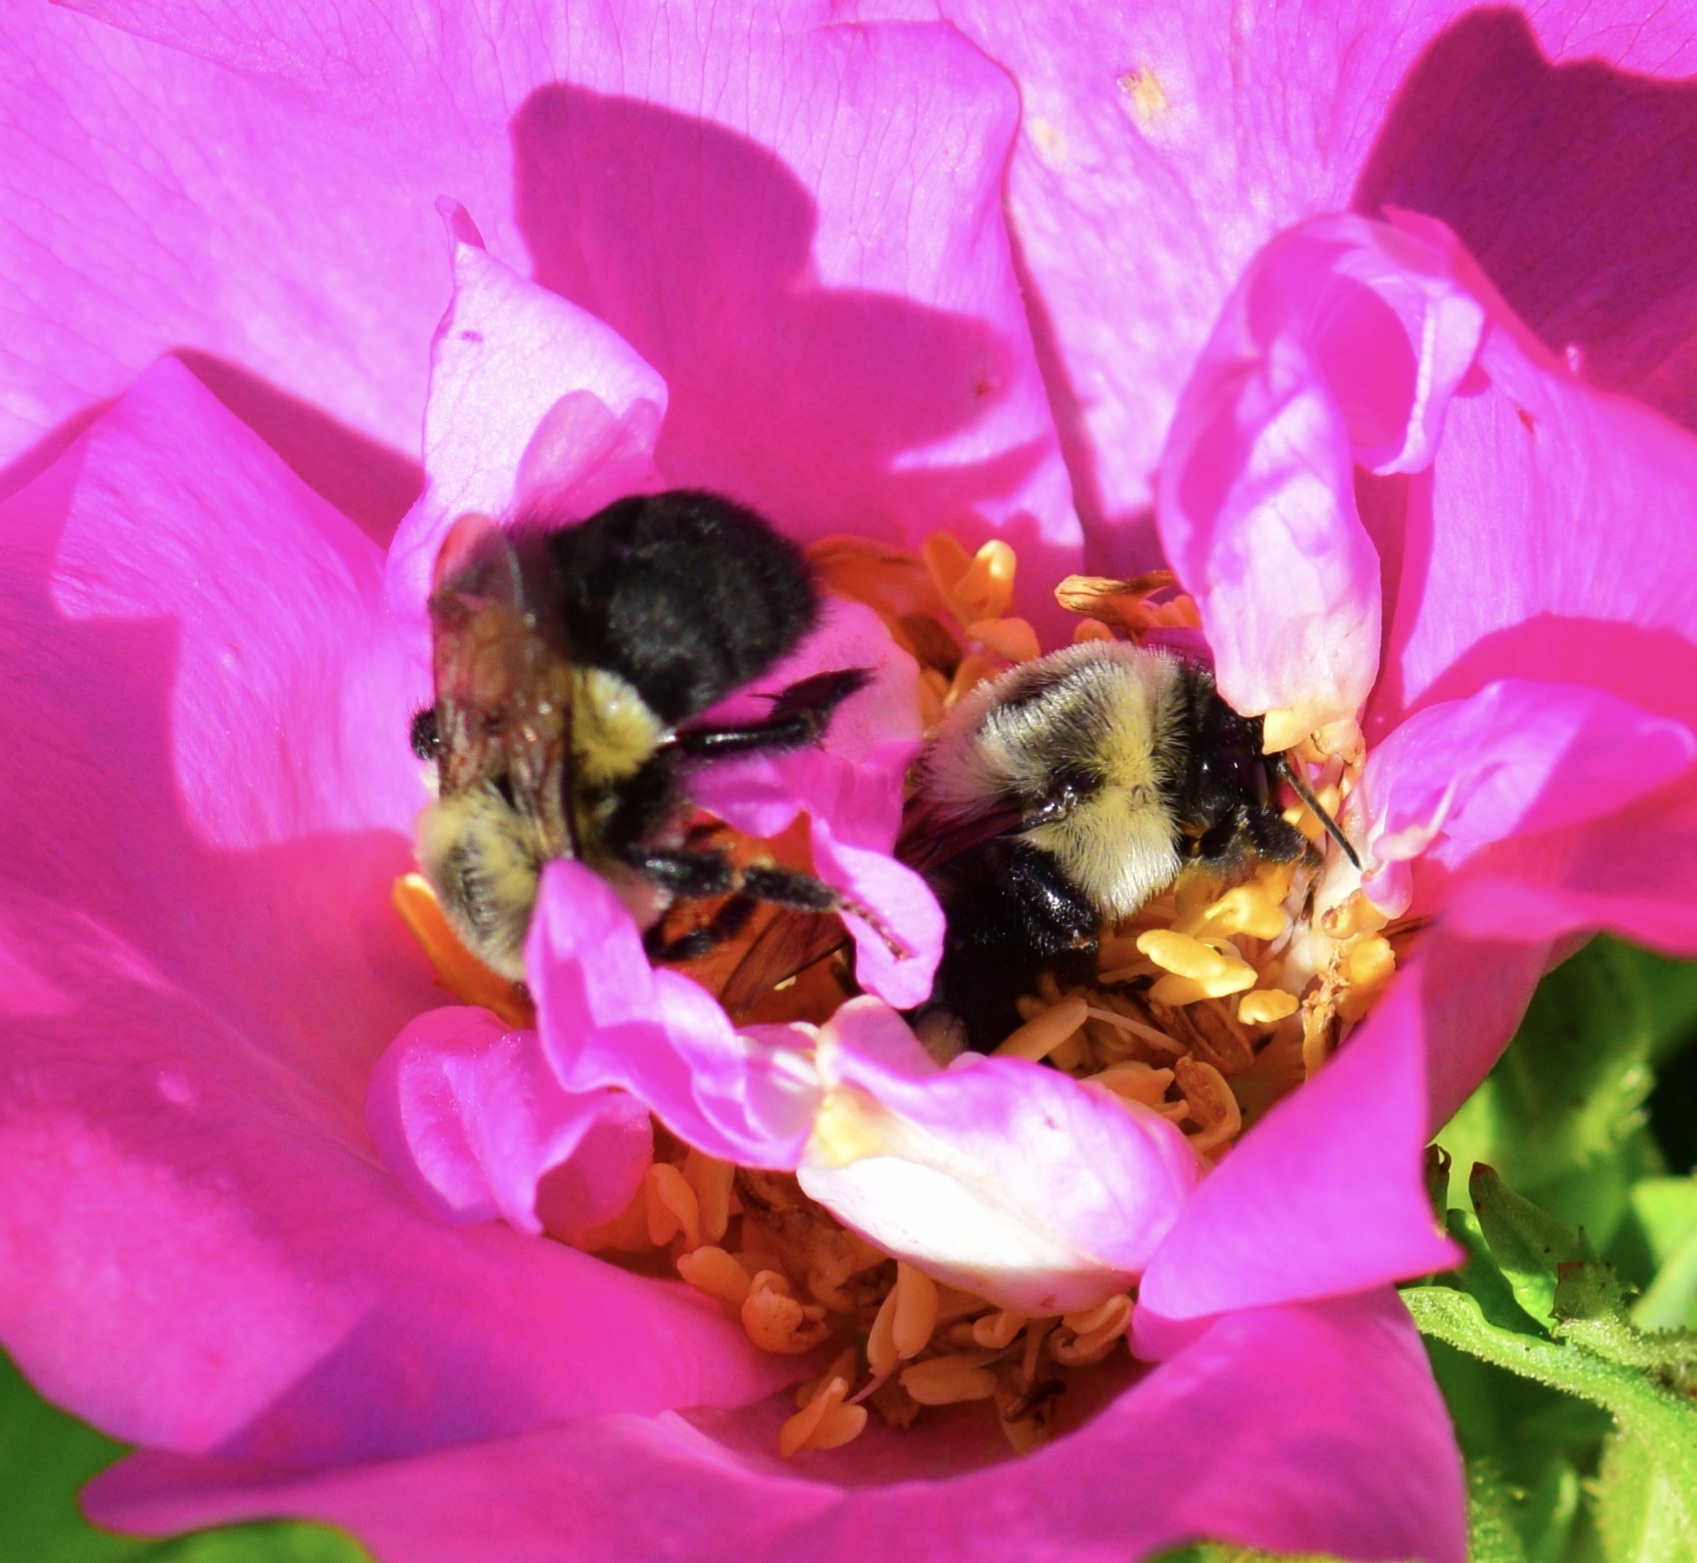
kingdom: Animalia
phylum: Arthropoda
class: Insecta
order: Hymenoptera
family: Apidae
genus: Bombus
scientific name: Bombus impatiens
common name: Common eastern bumble bee
